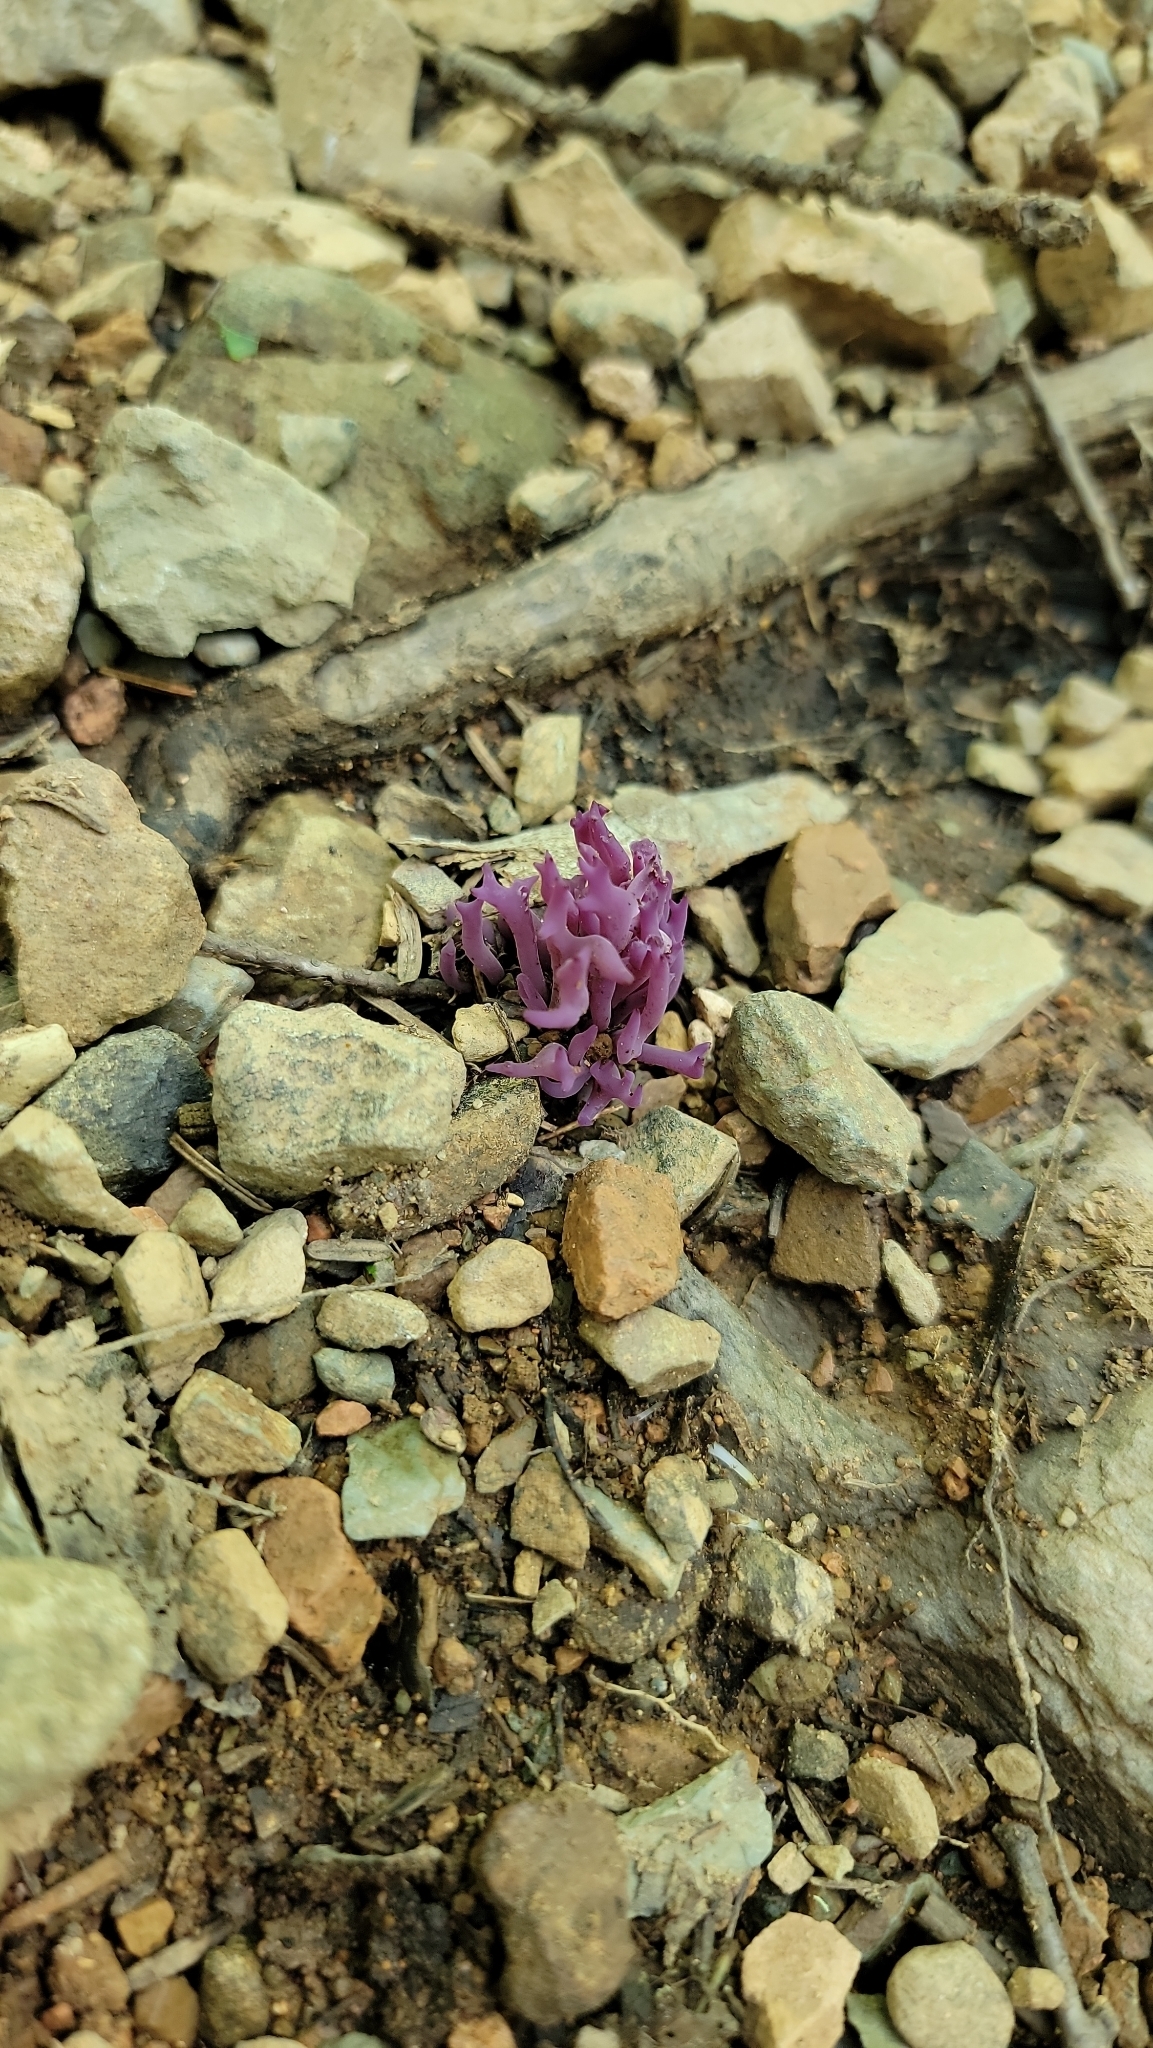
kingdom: Fungi
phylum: Basidiomycota
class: Agaricomycetes
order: Agaricales
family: Clavariaceae
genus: Clavaria
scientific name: Clavaria zollingeri
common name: Violet coral
